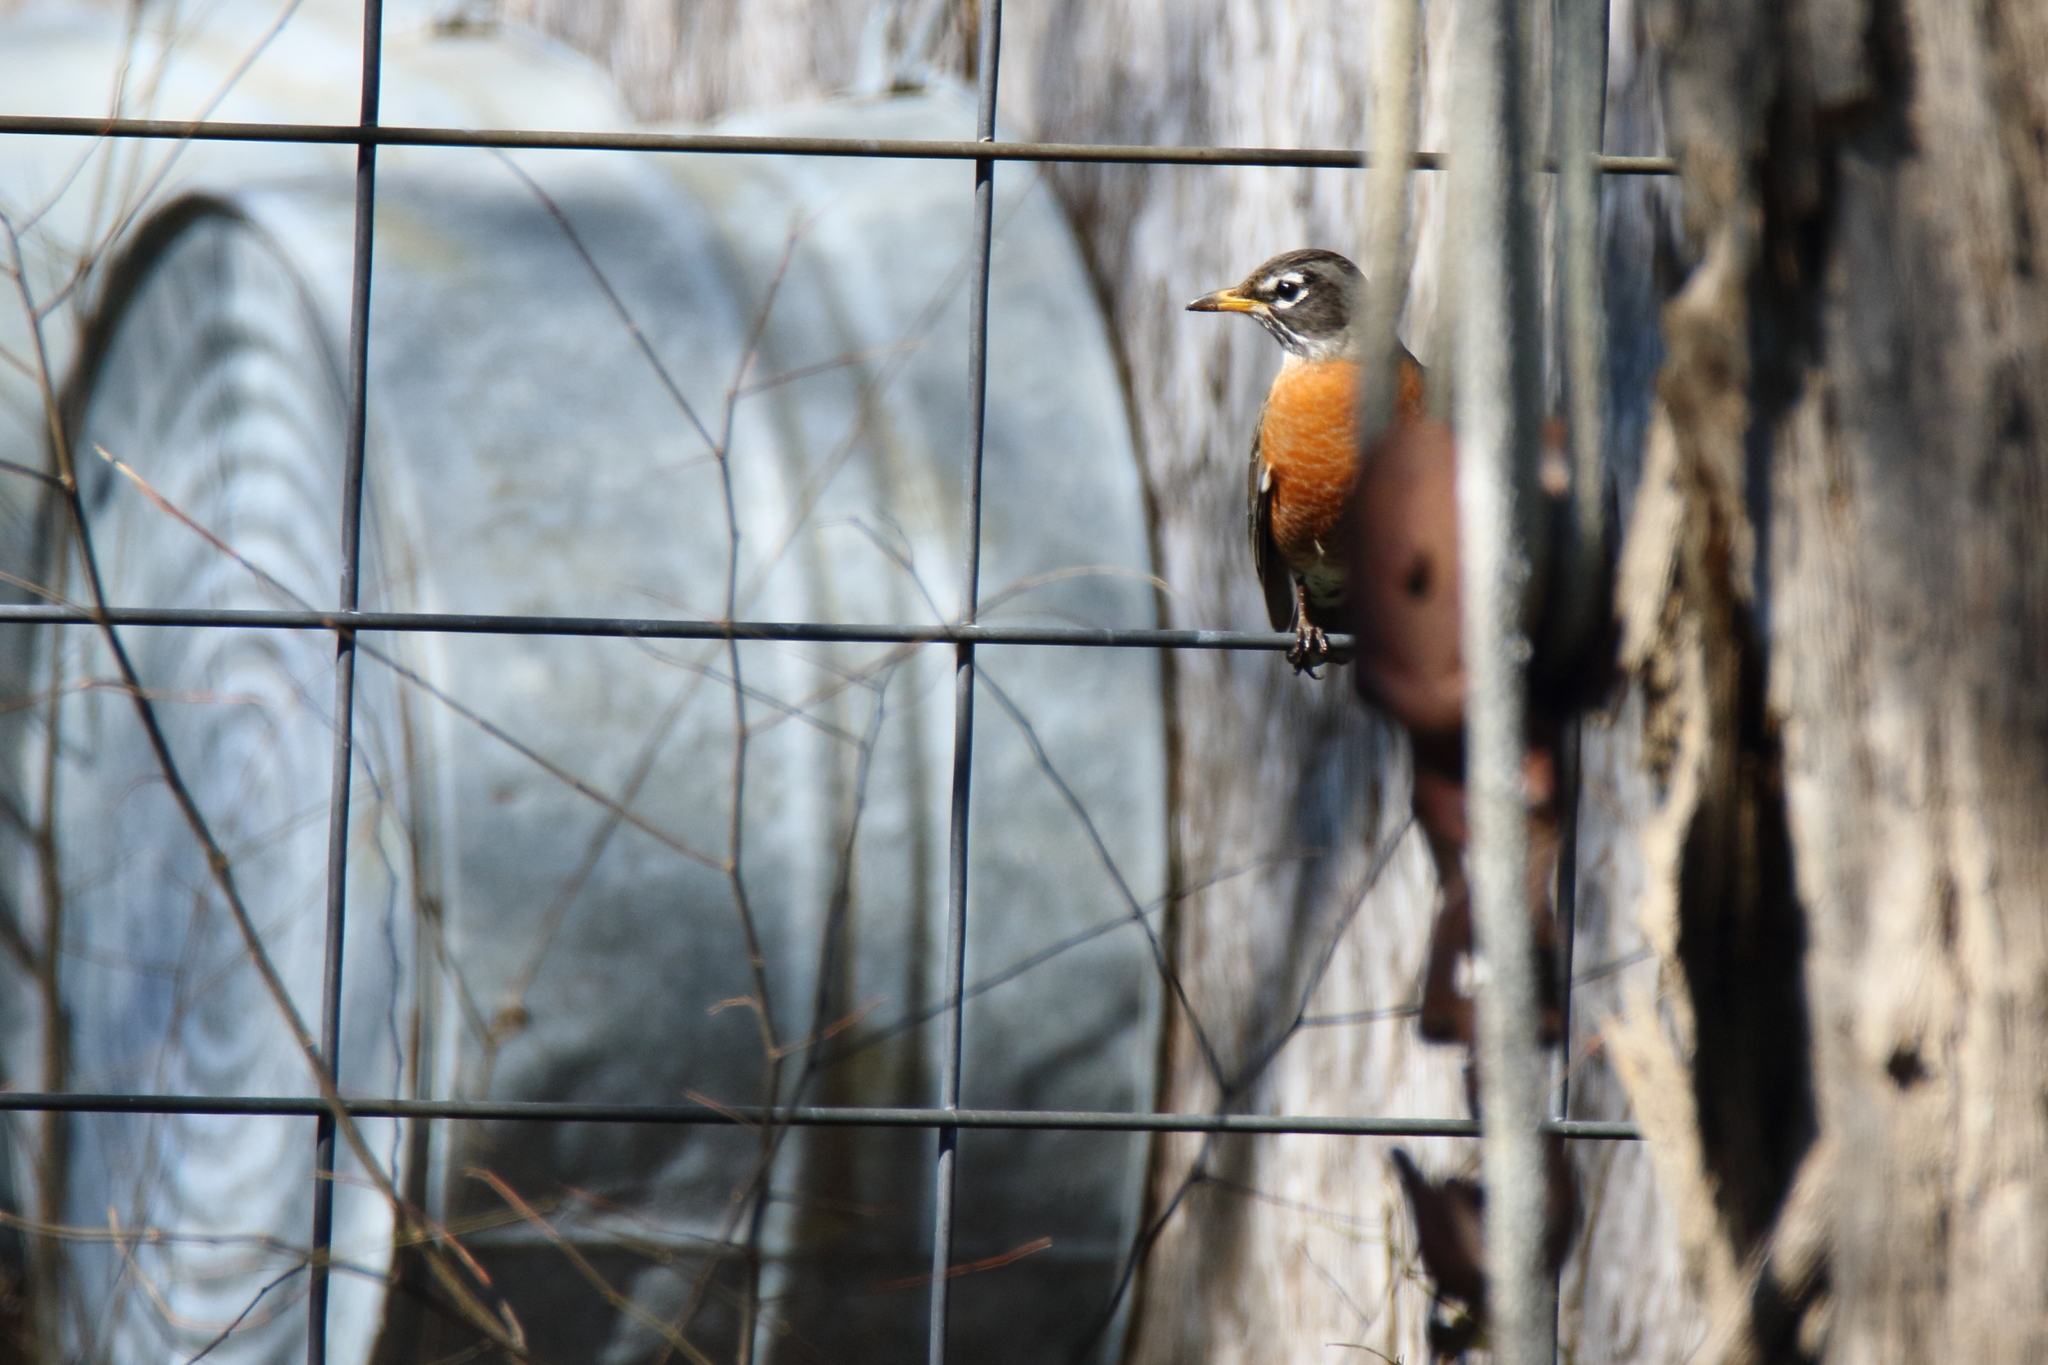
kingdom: Animalia
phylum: Chordata
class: Aves
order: Passeriformes
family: Turdidae
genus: Turdus
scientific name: Turdus migratorius
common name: American robin
